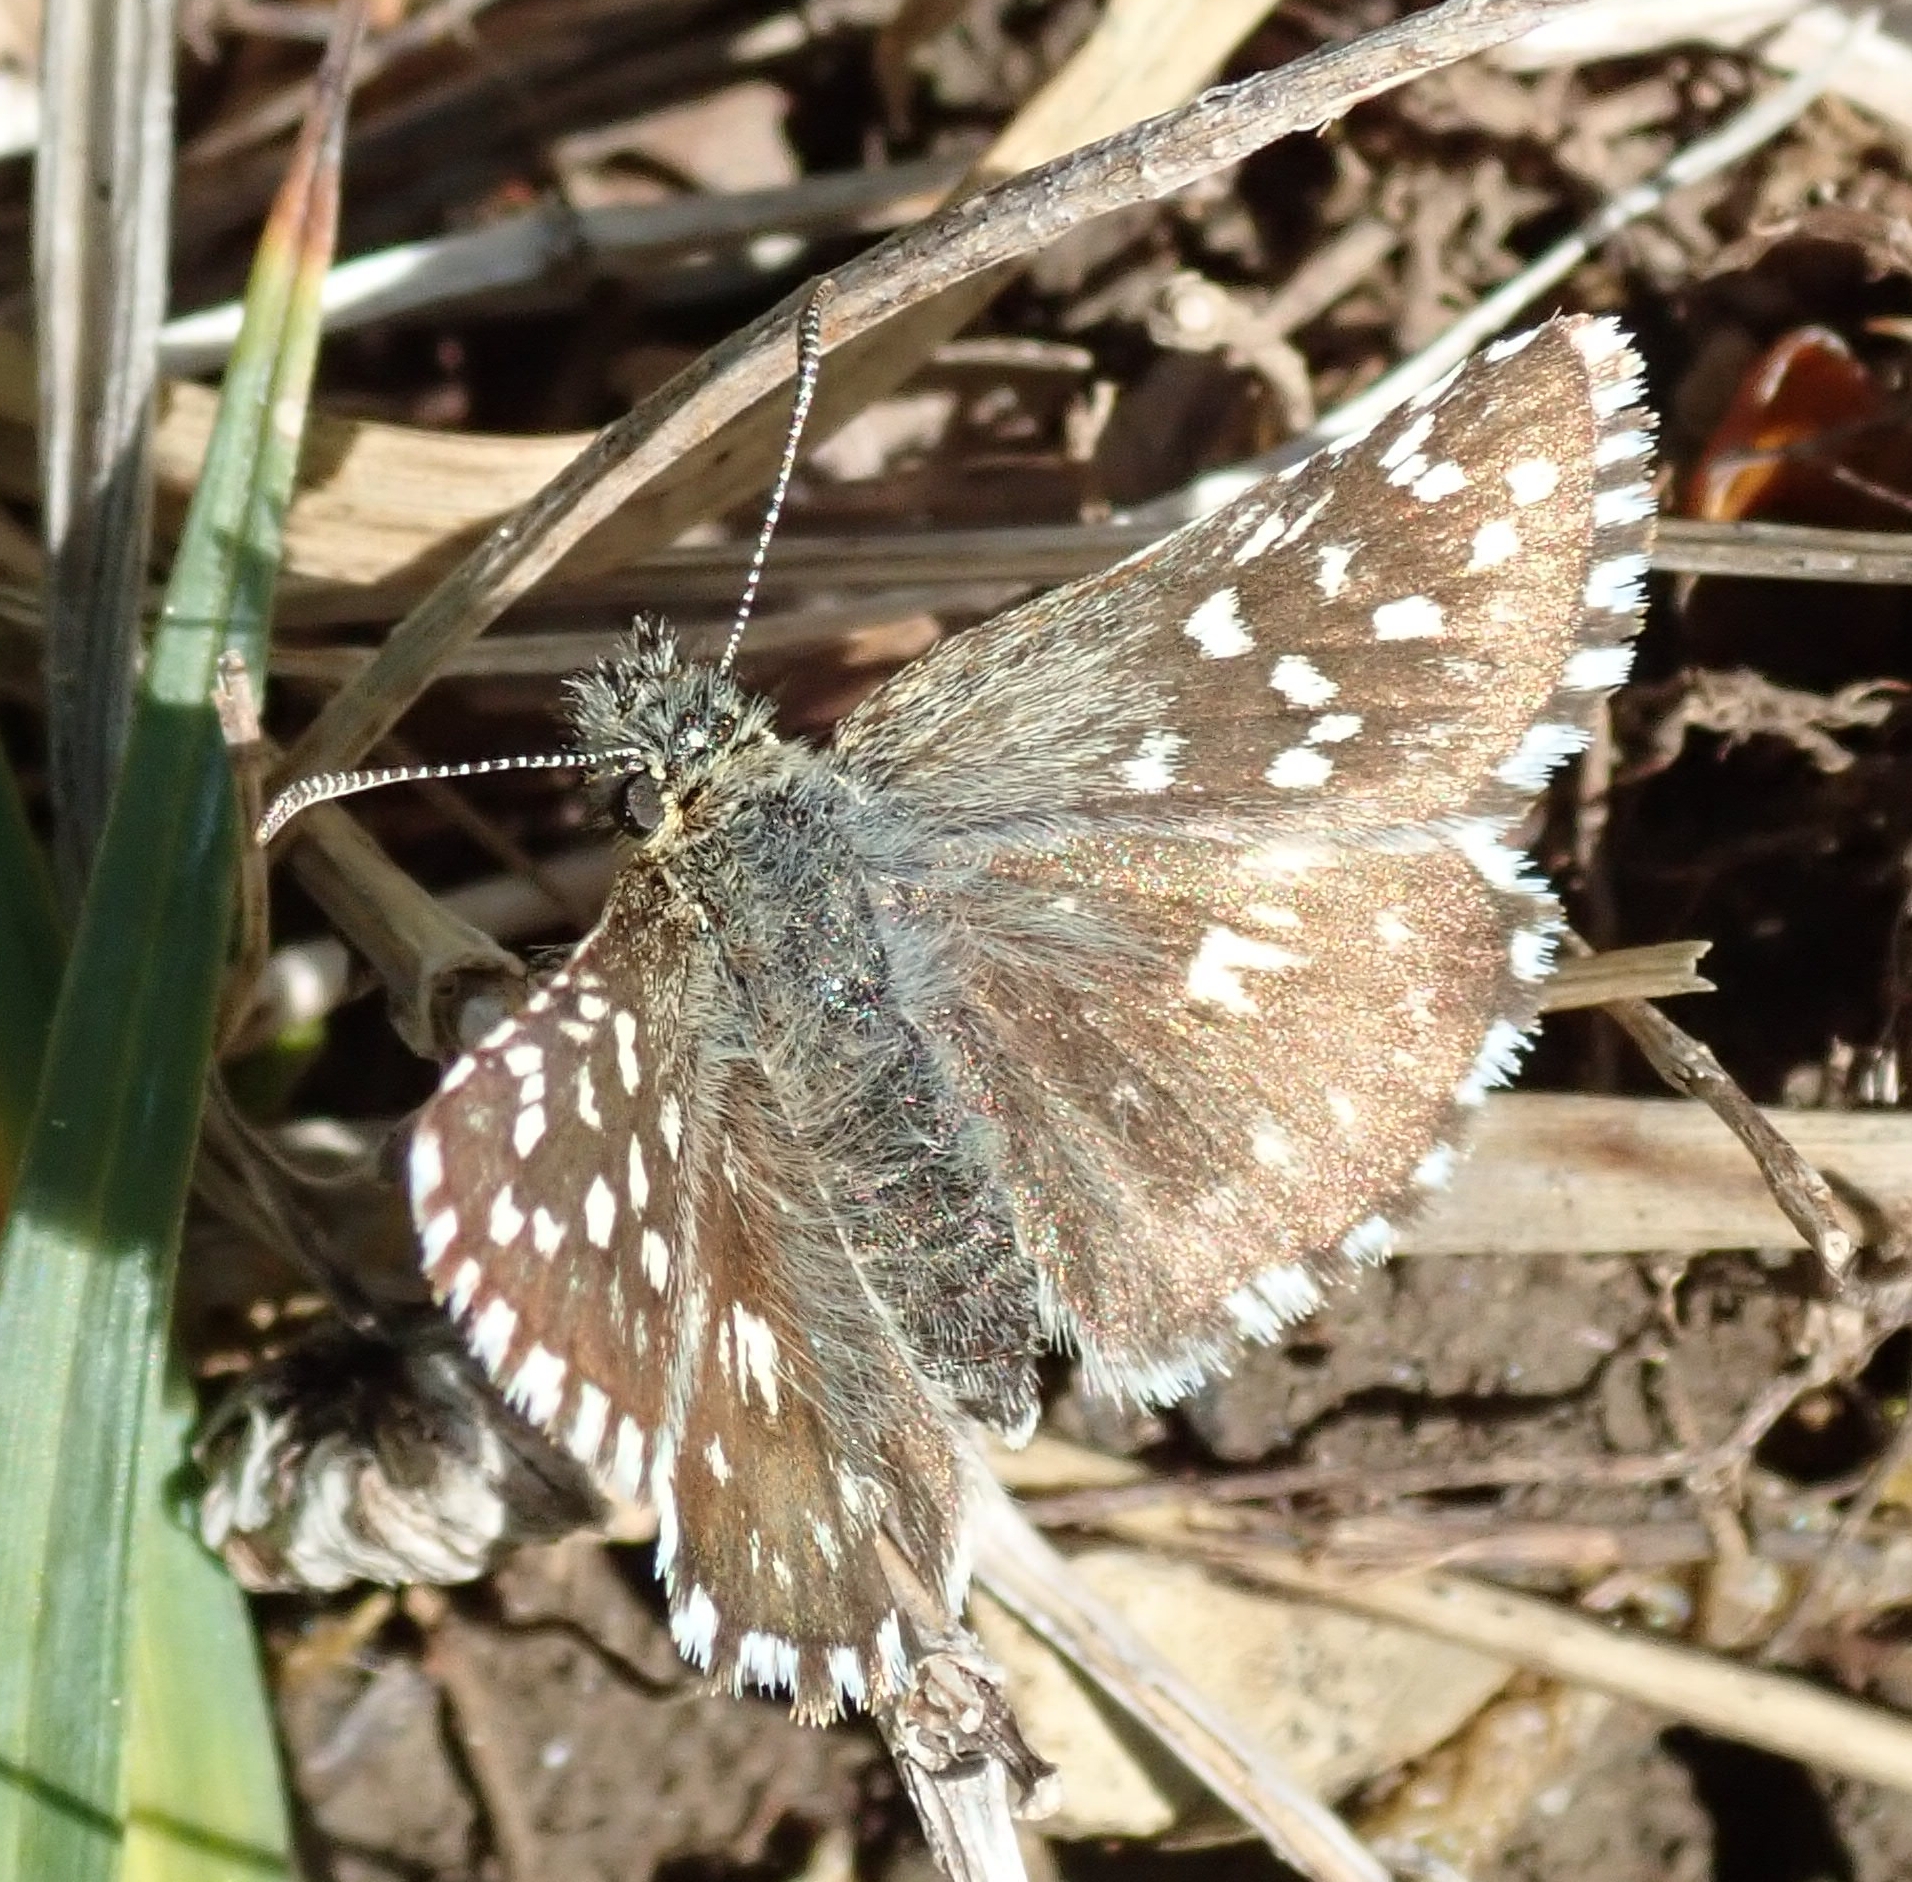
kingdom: Animalia
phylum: Arthropoda
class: Insecta
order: Lepidoptera
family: Hesperiidae
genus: Pyrgus
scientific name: Pyrgus malvae
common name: Grizzled skipper
